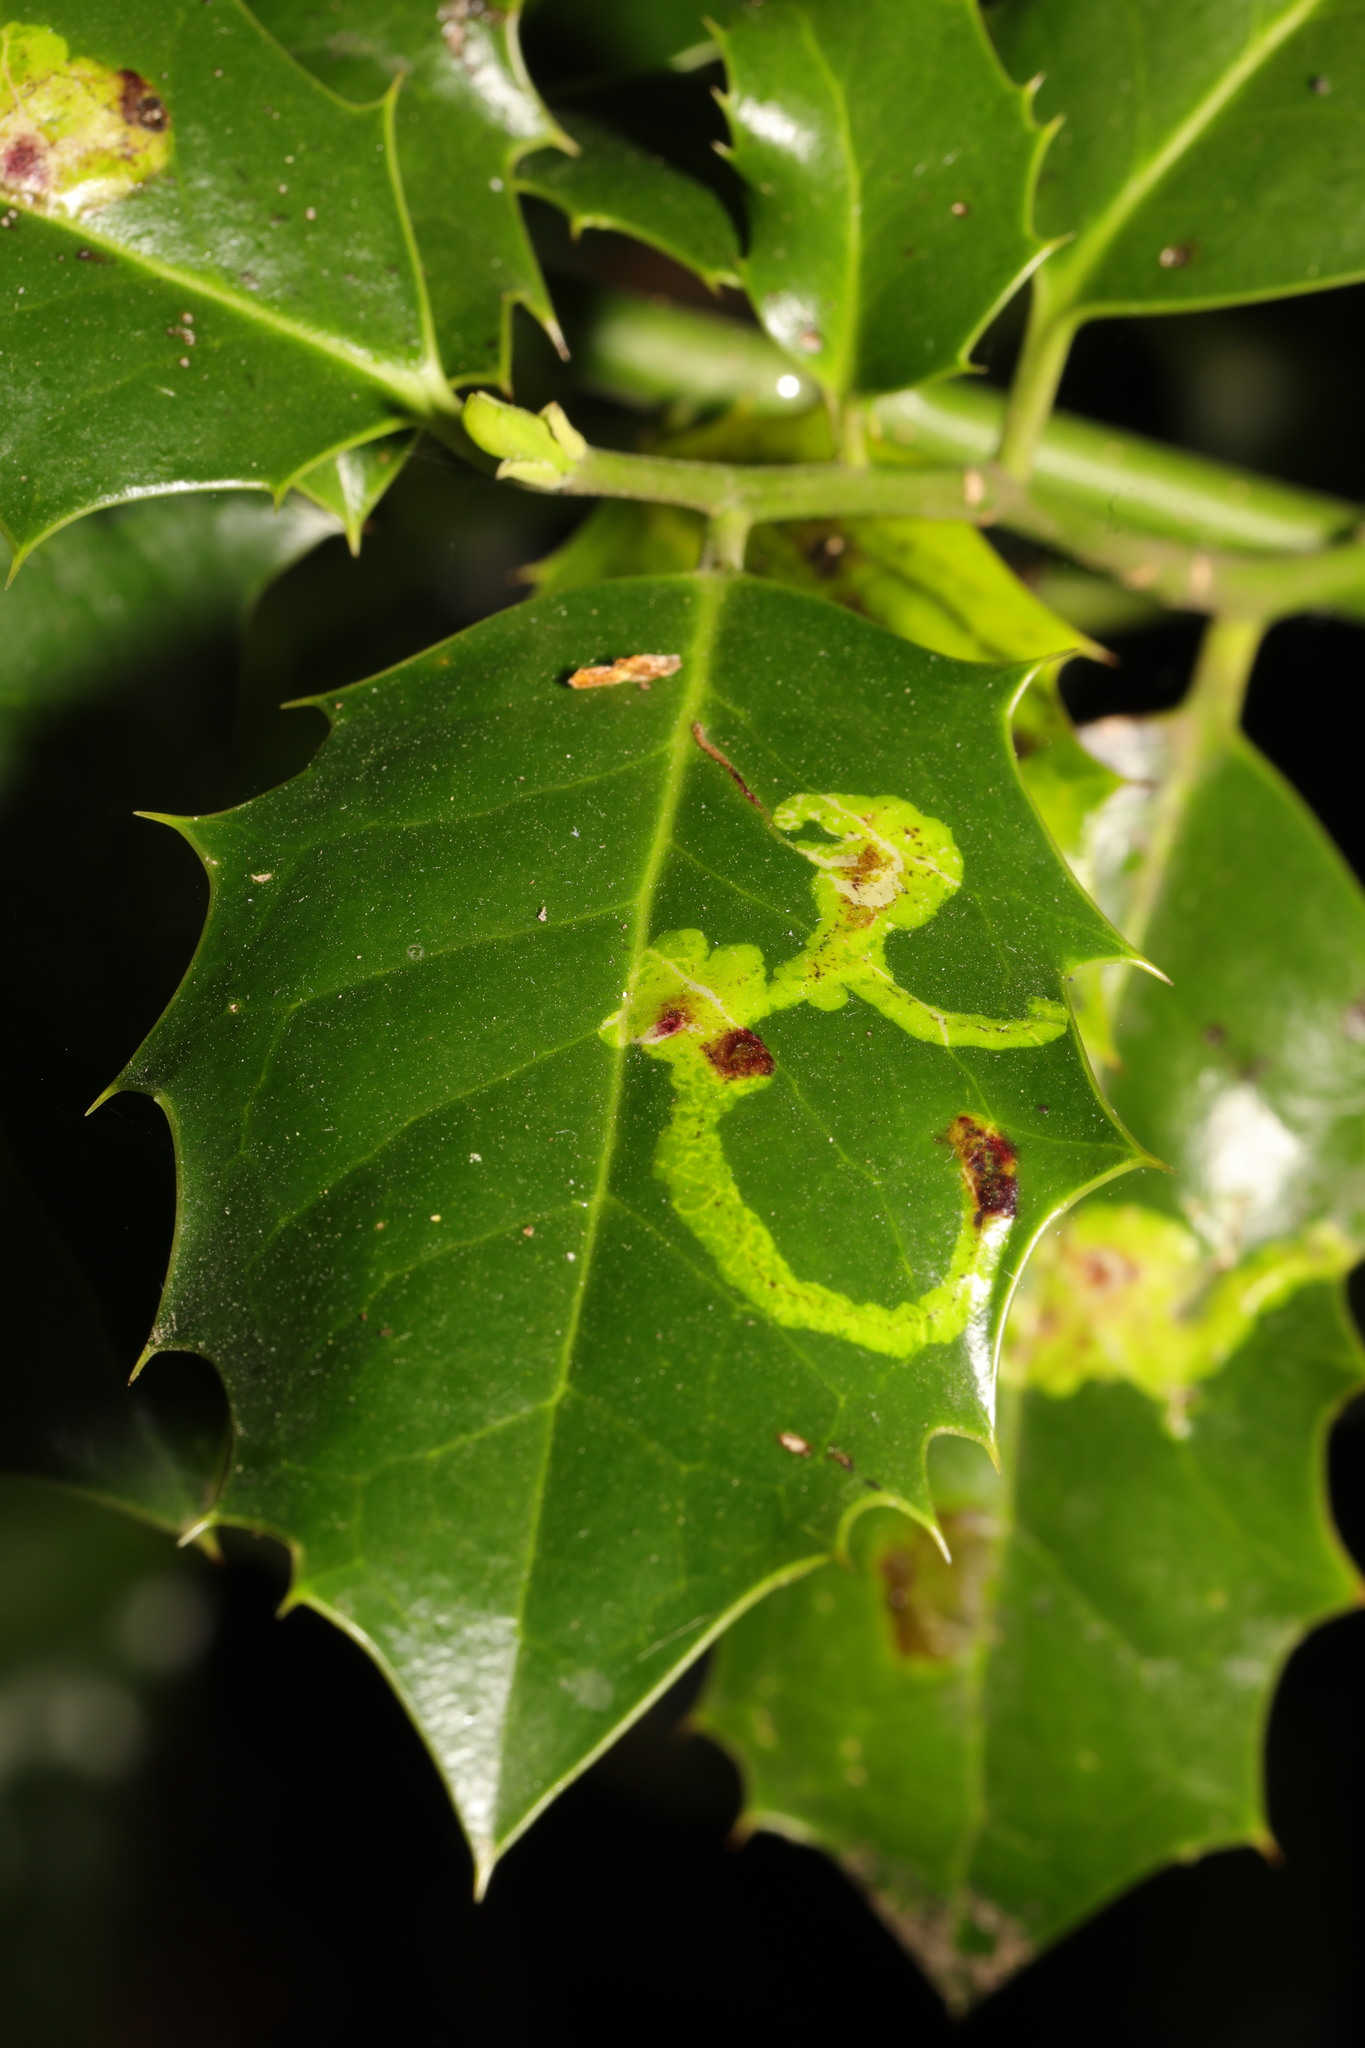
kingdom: Animalia
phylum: Arthropoda
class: Insecta
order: Diptera
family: Agromyzidae
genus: Phytomyza
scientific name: Phytomyza ilicis
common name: Holly leafminer
